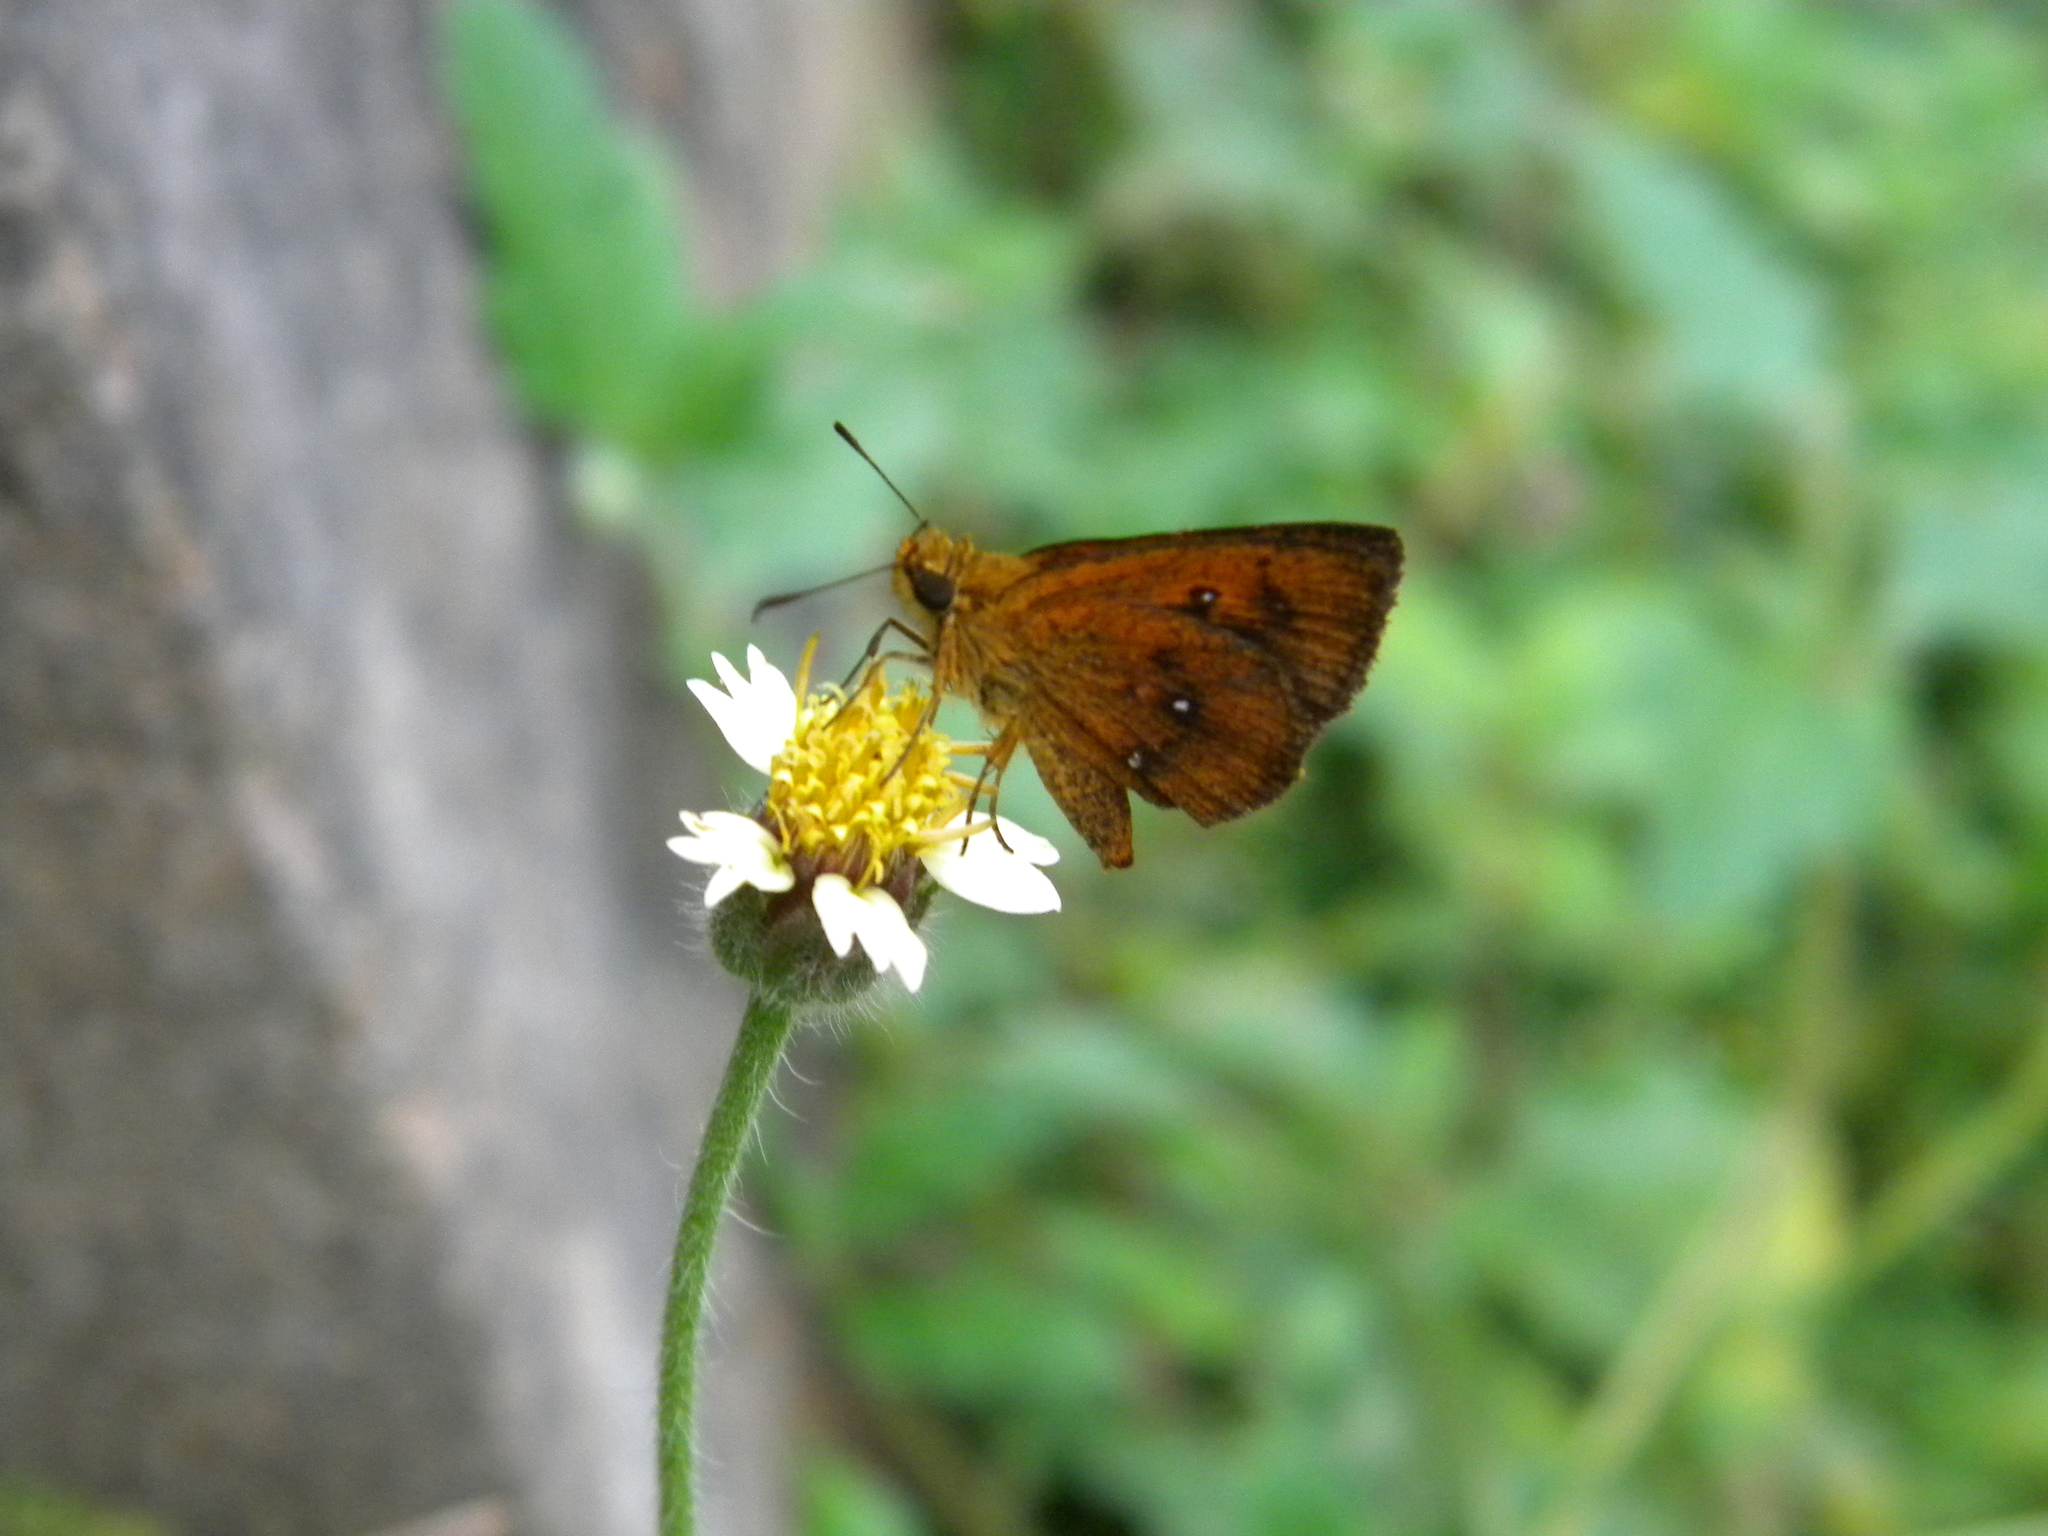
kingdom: Animalia
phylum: Arthropoda
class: Insecta
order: Lepidoptera
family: Hesperiidae
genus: Iambrix
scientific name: Iambrix salsala
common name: Chestnut bob
